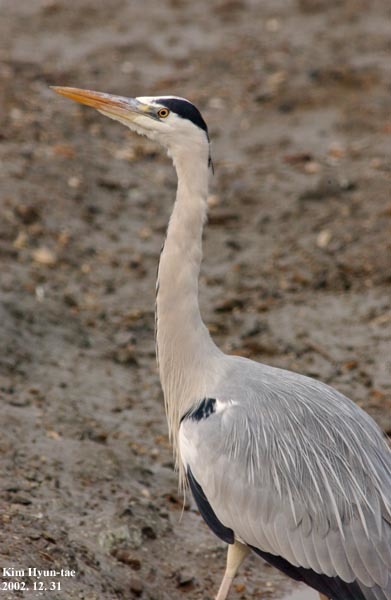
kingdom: Animalia
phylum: Chordata
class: Aves
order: Pelecaniformes
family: Ardeidae
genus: Ardea
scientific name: Ardea cinerea
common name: Grey heron
